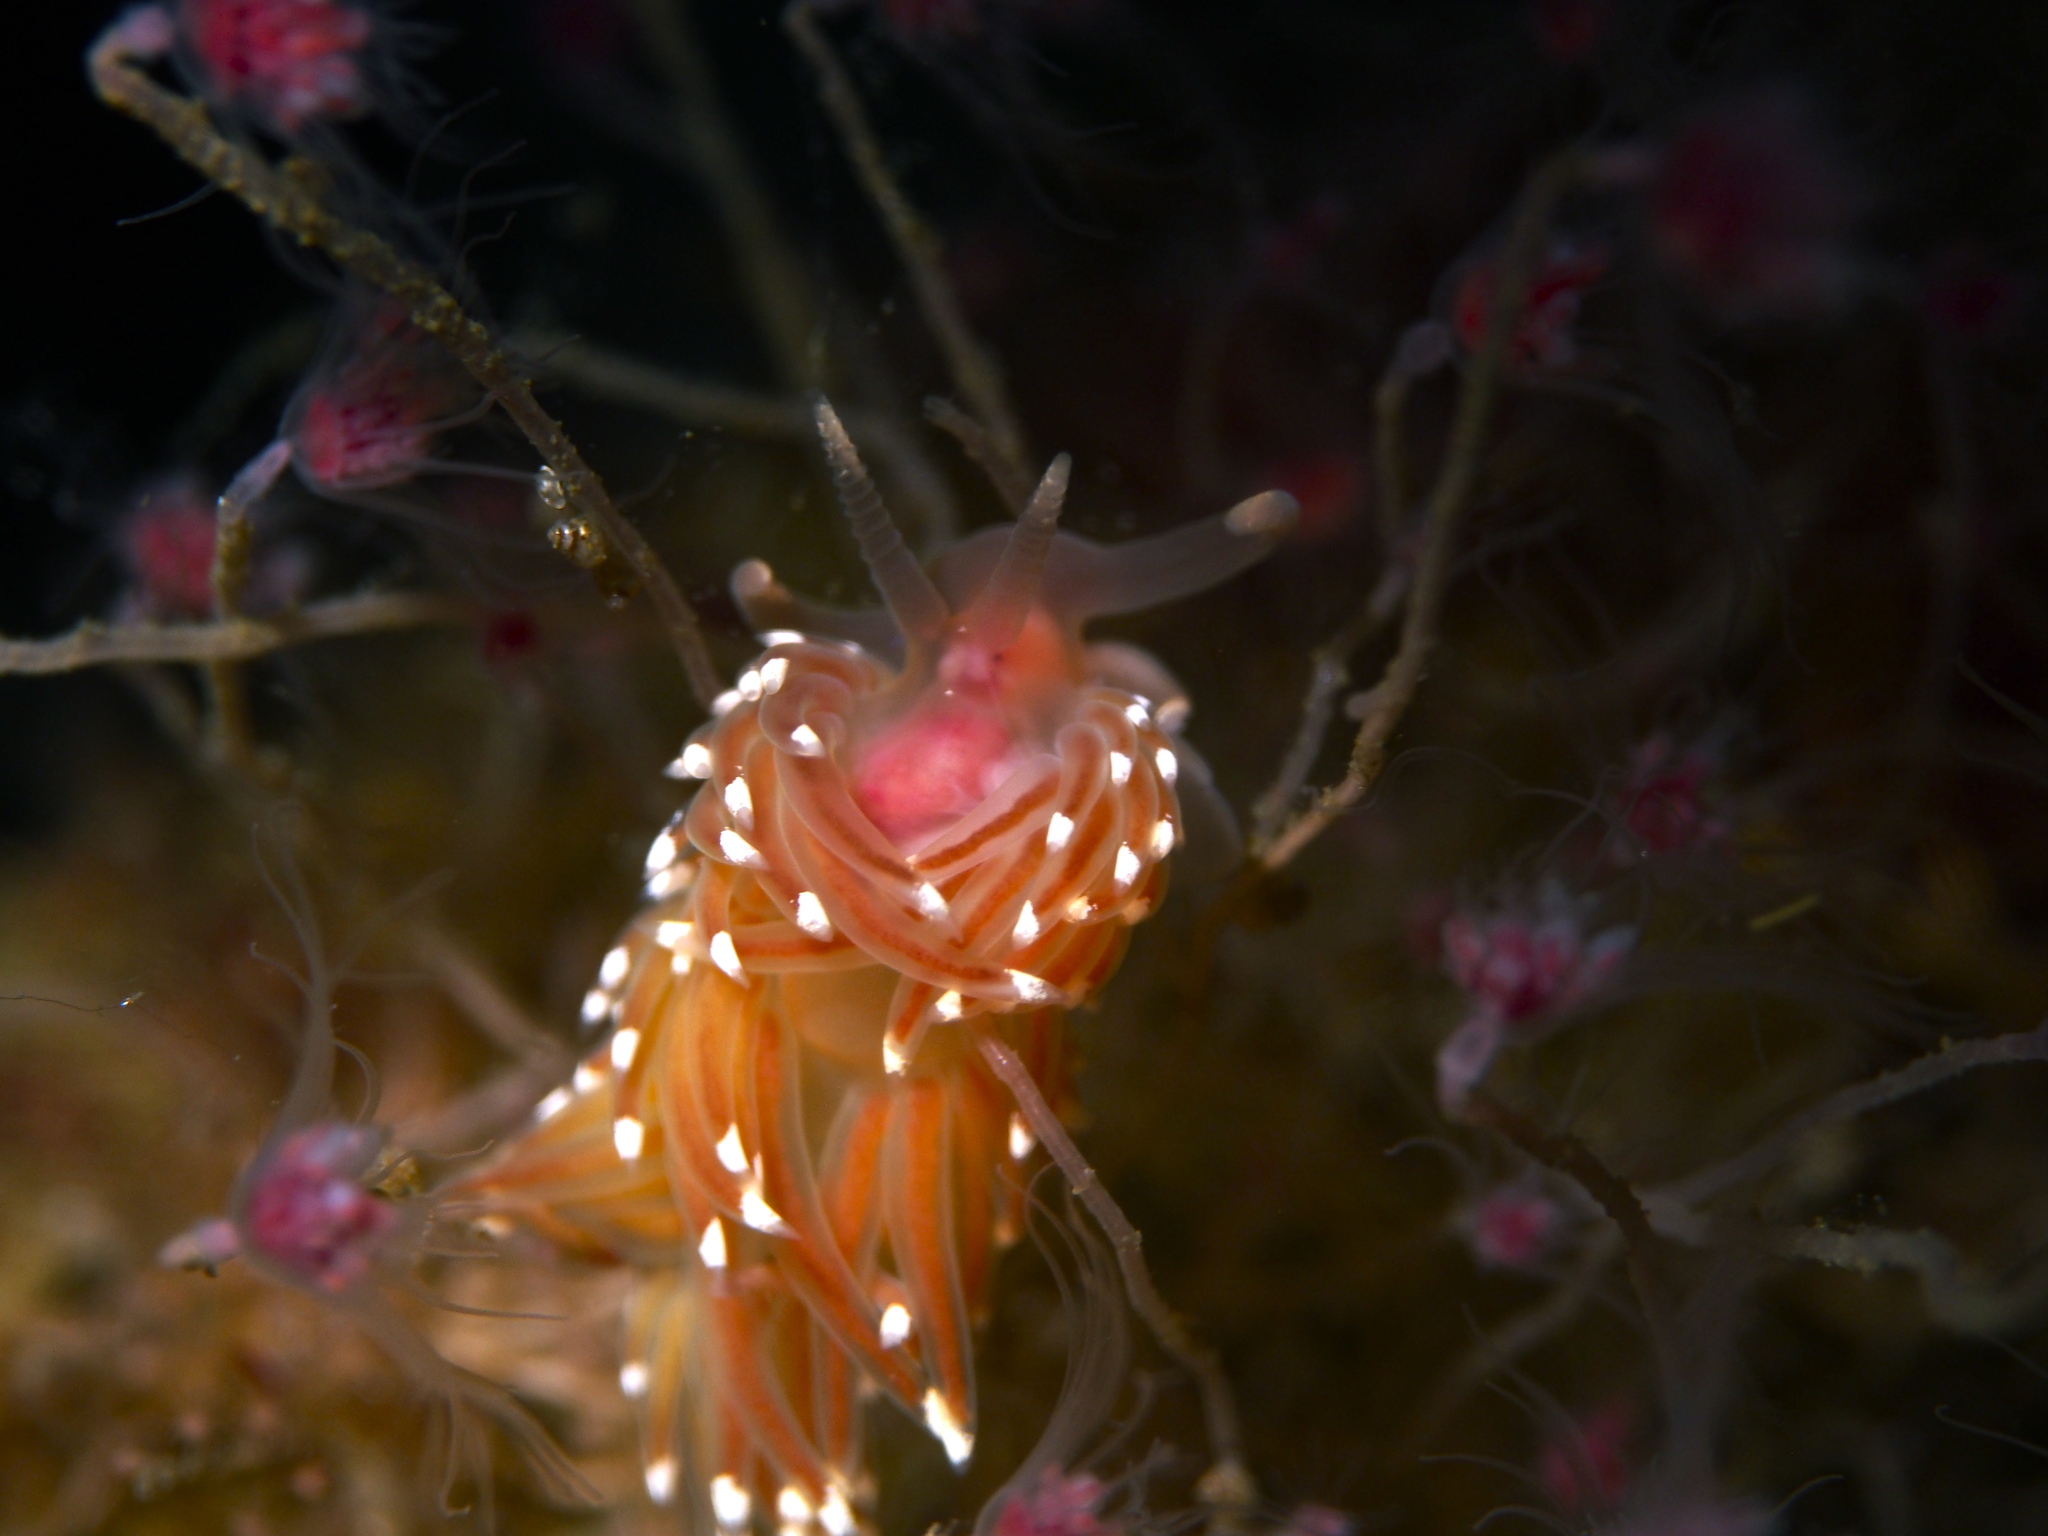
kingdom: Animalia
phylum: Mollusca
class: Gastropoda
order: Nudibranchia
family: Facelinidae
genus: Facelina
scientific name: Facelina bostoniensis
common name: Boston facelina
